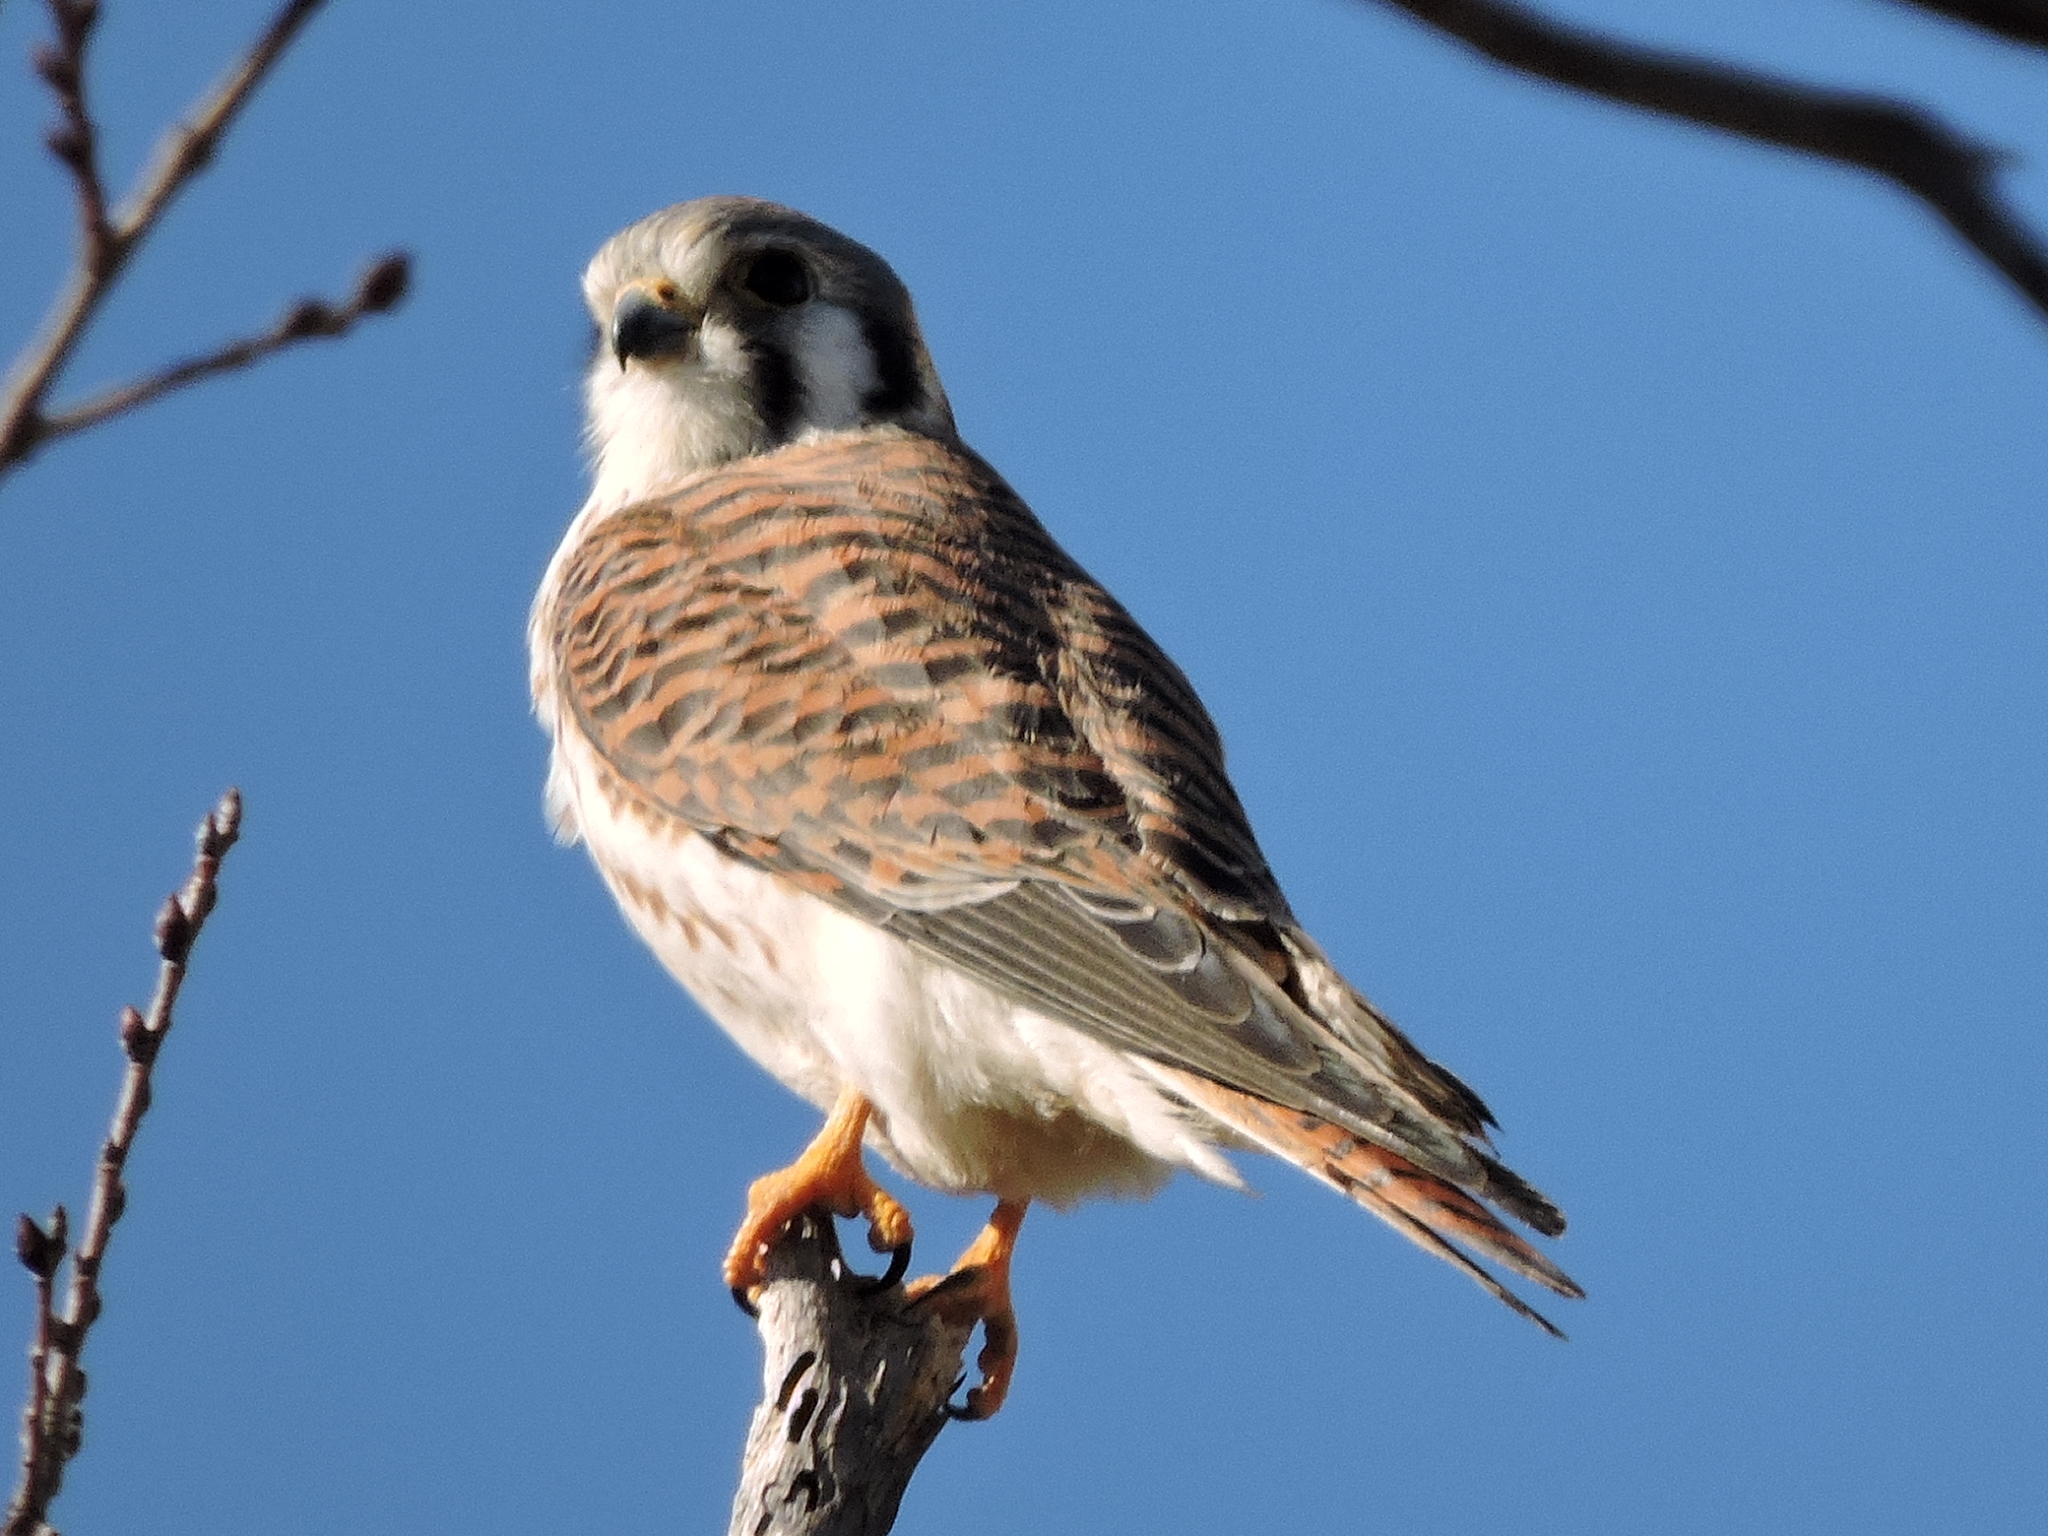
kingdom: Animalia
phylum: Chordata
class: Aves
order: Falconiformes
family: Falconidae
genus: Falco
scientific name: Falco sparverius
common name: American kestrel
